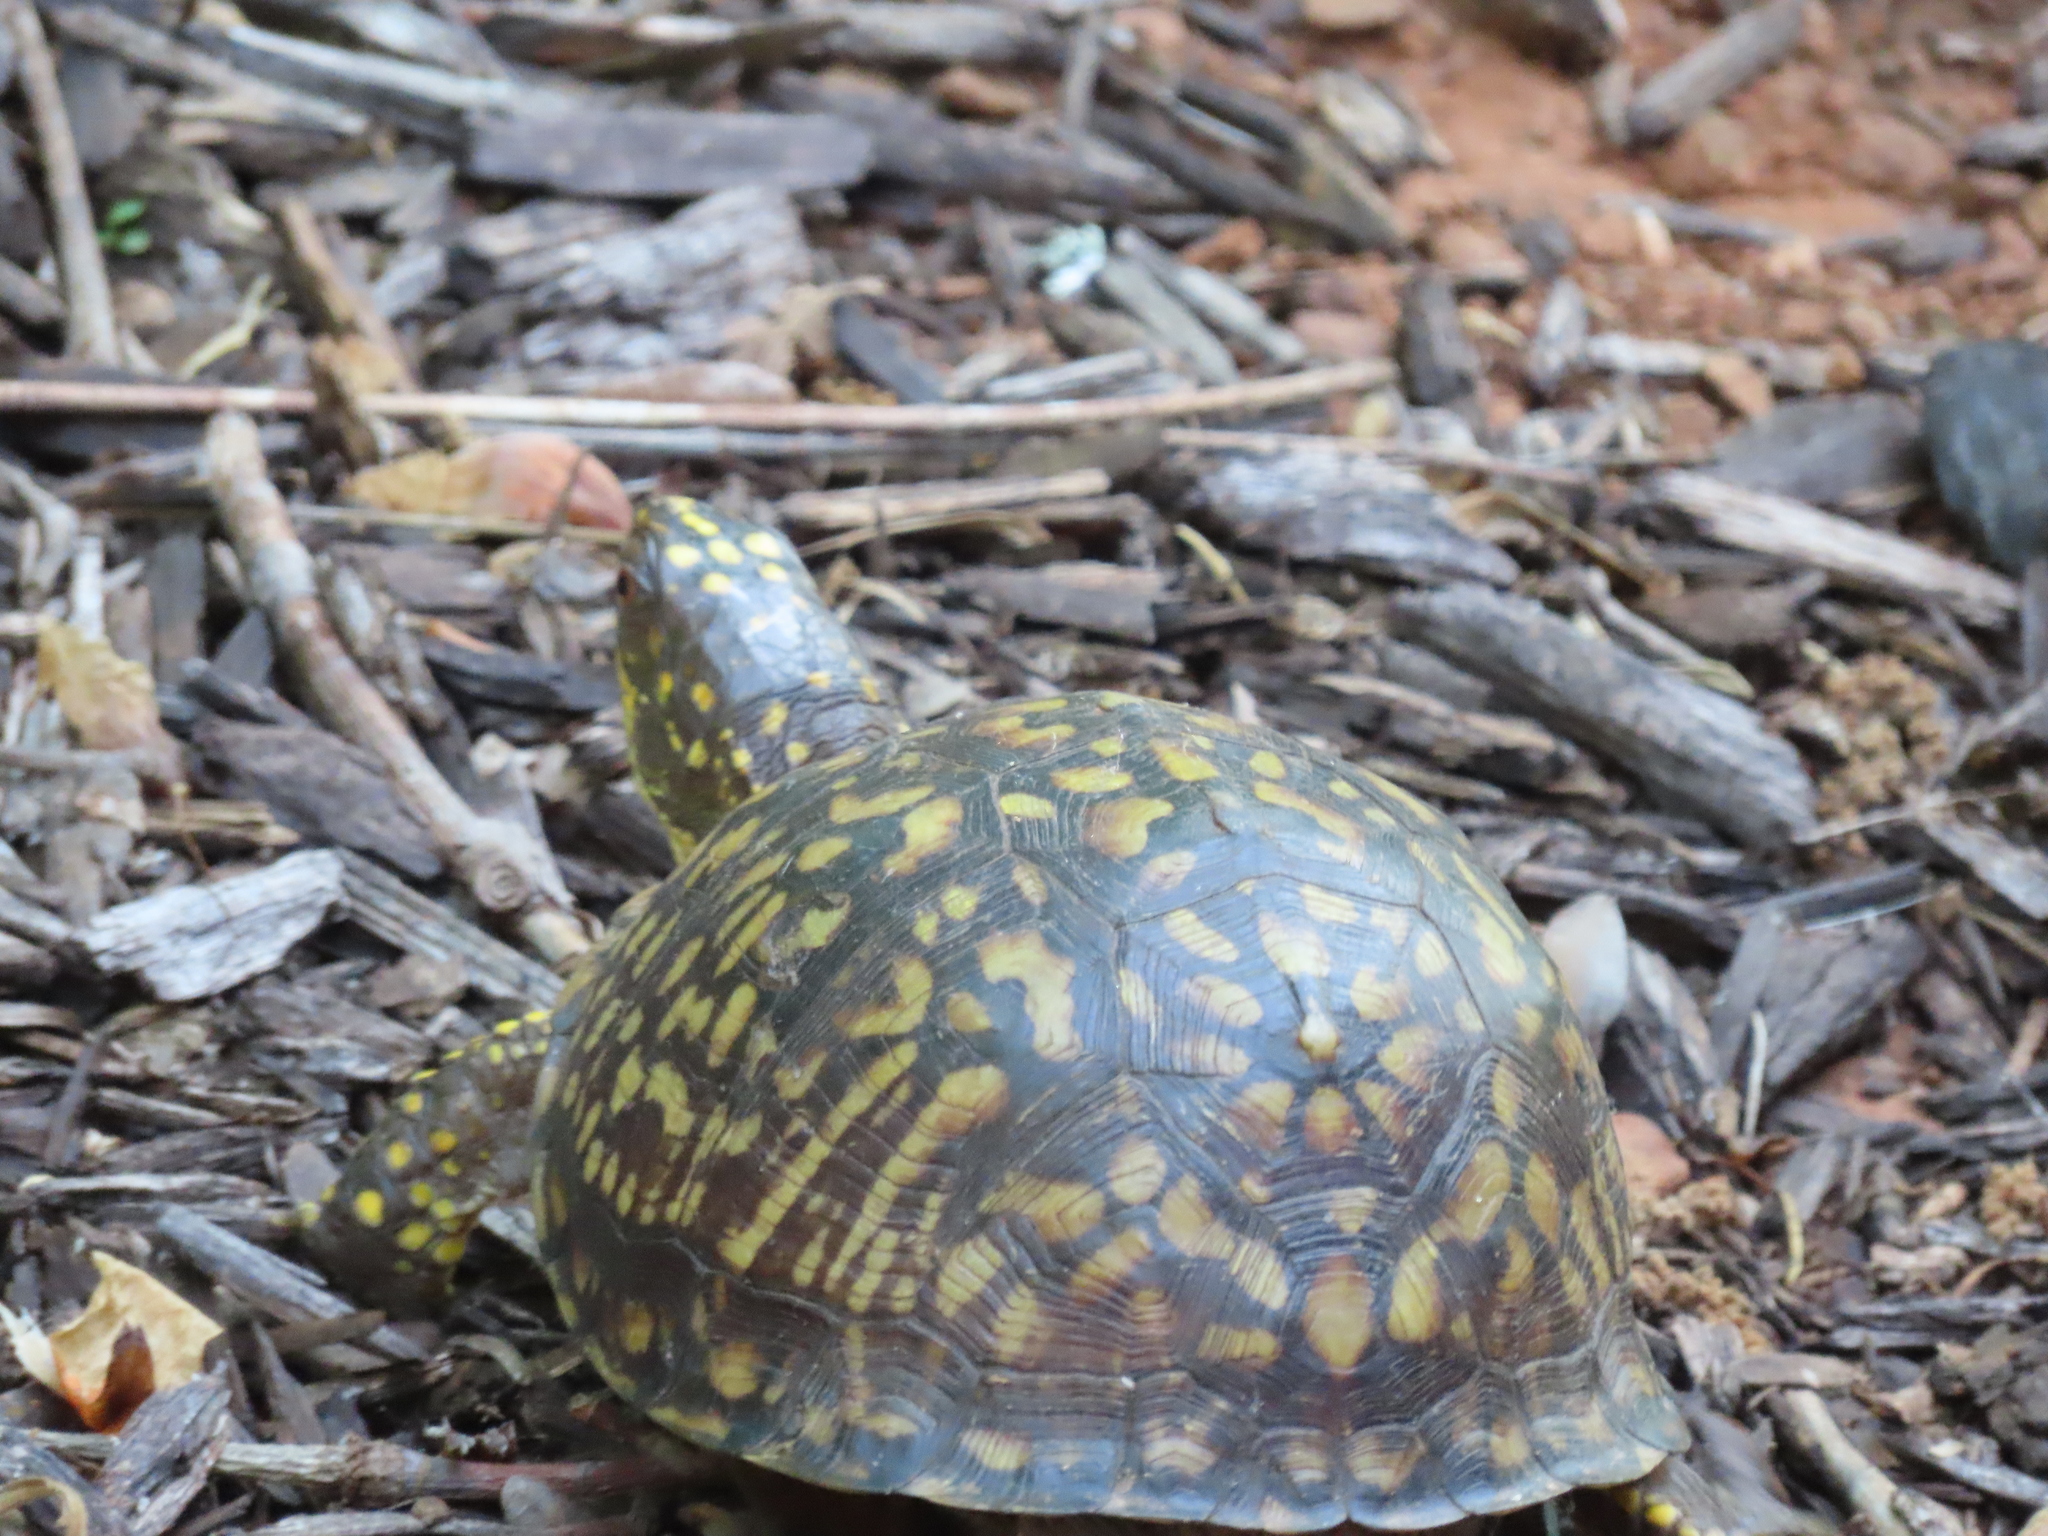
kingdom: Animalia
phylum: Chordata
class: Testudines
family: Emydidae
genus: Terrapene
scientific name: Terrapene carolina
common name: Common box turtle
